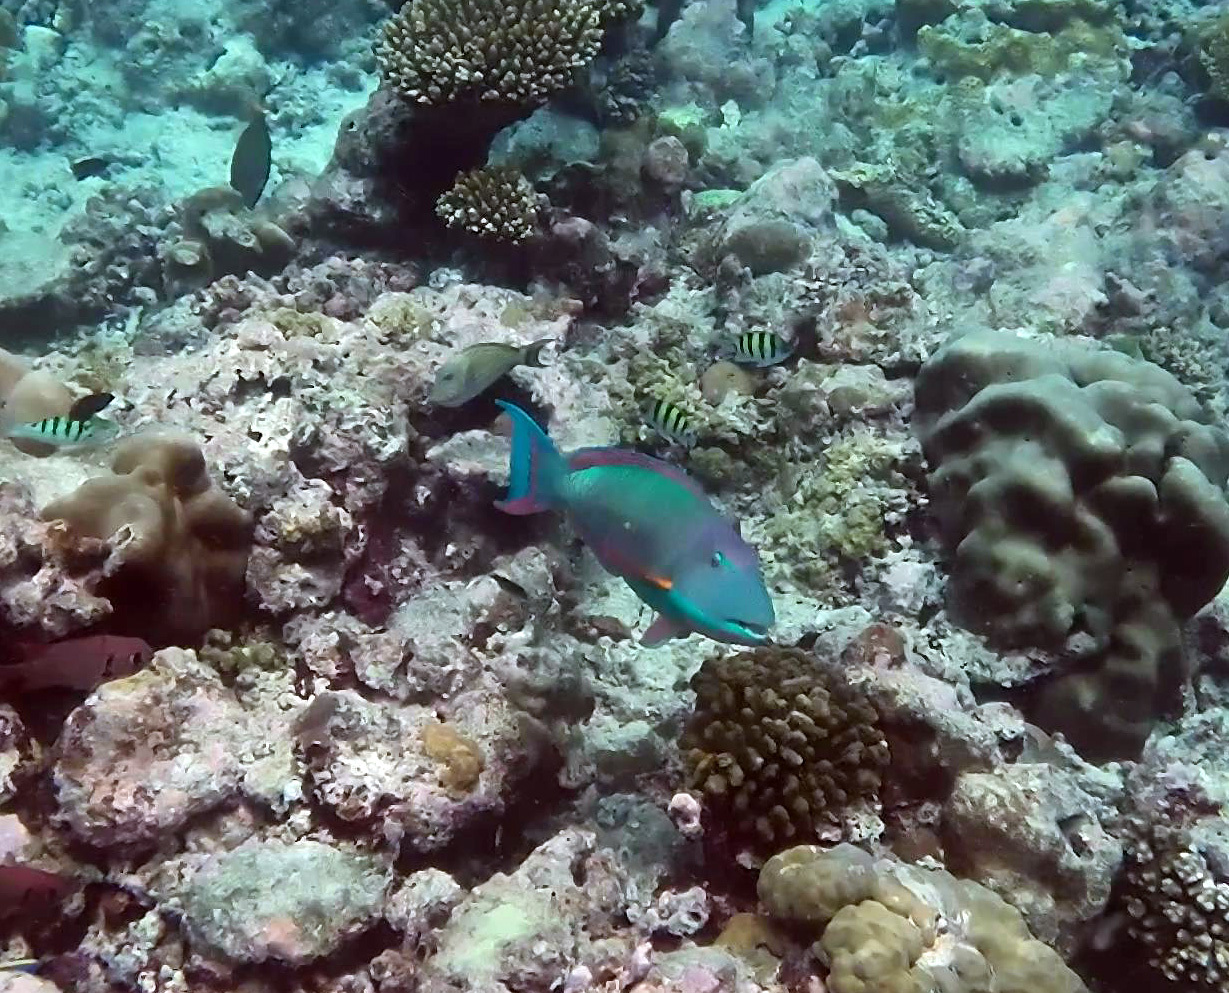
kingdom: Animalia
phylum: Chordata
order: Perciformes
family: Scaridae
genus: Cetoscarus
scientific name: Cetoscarus ocellatus
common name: Bicolor parrotfish
